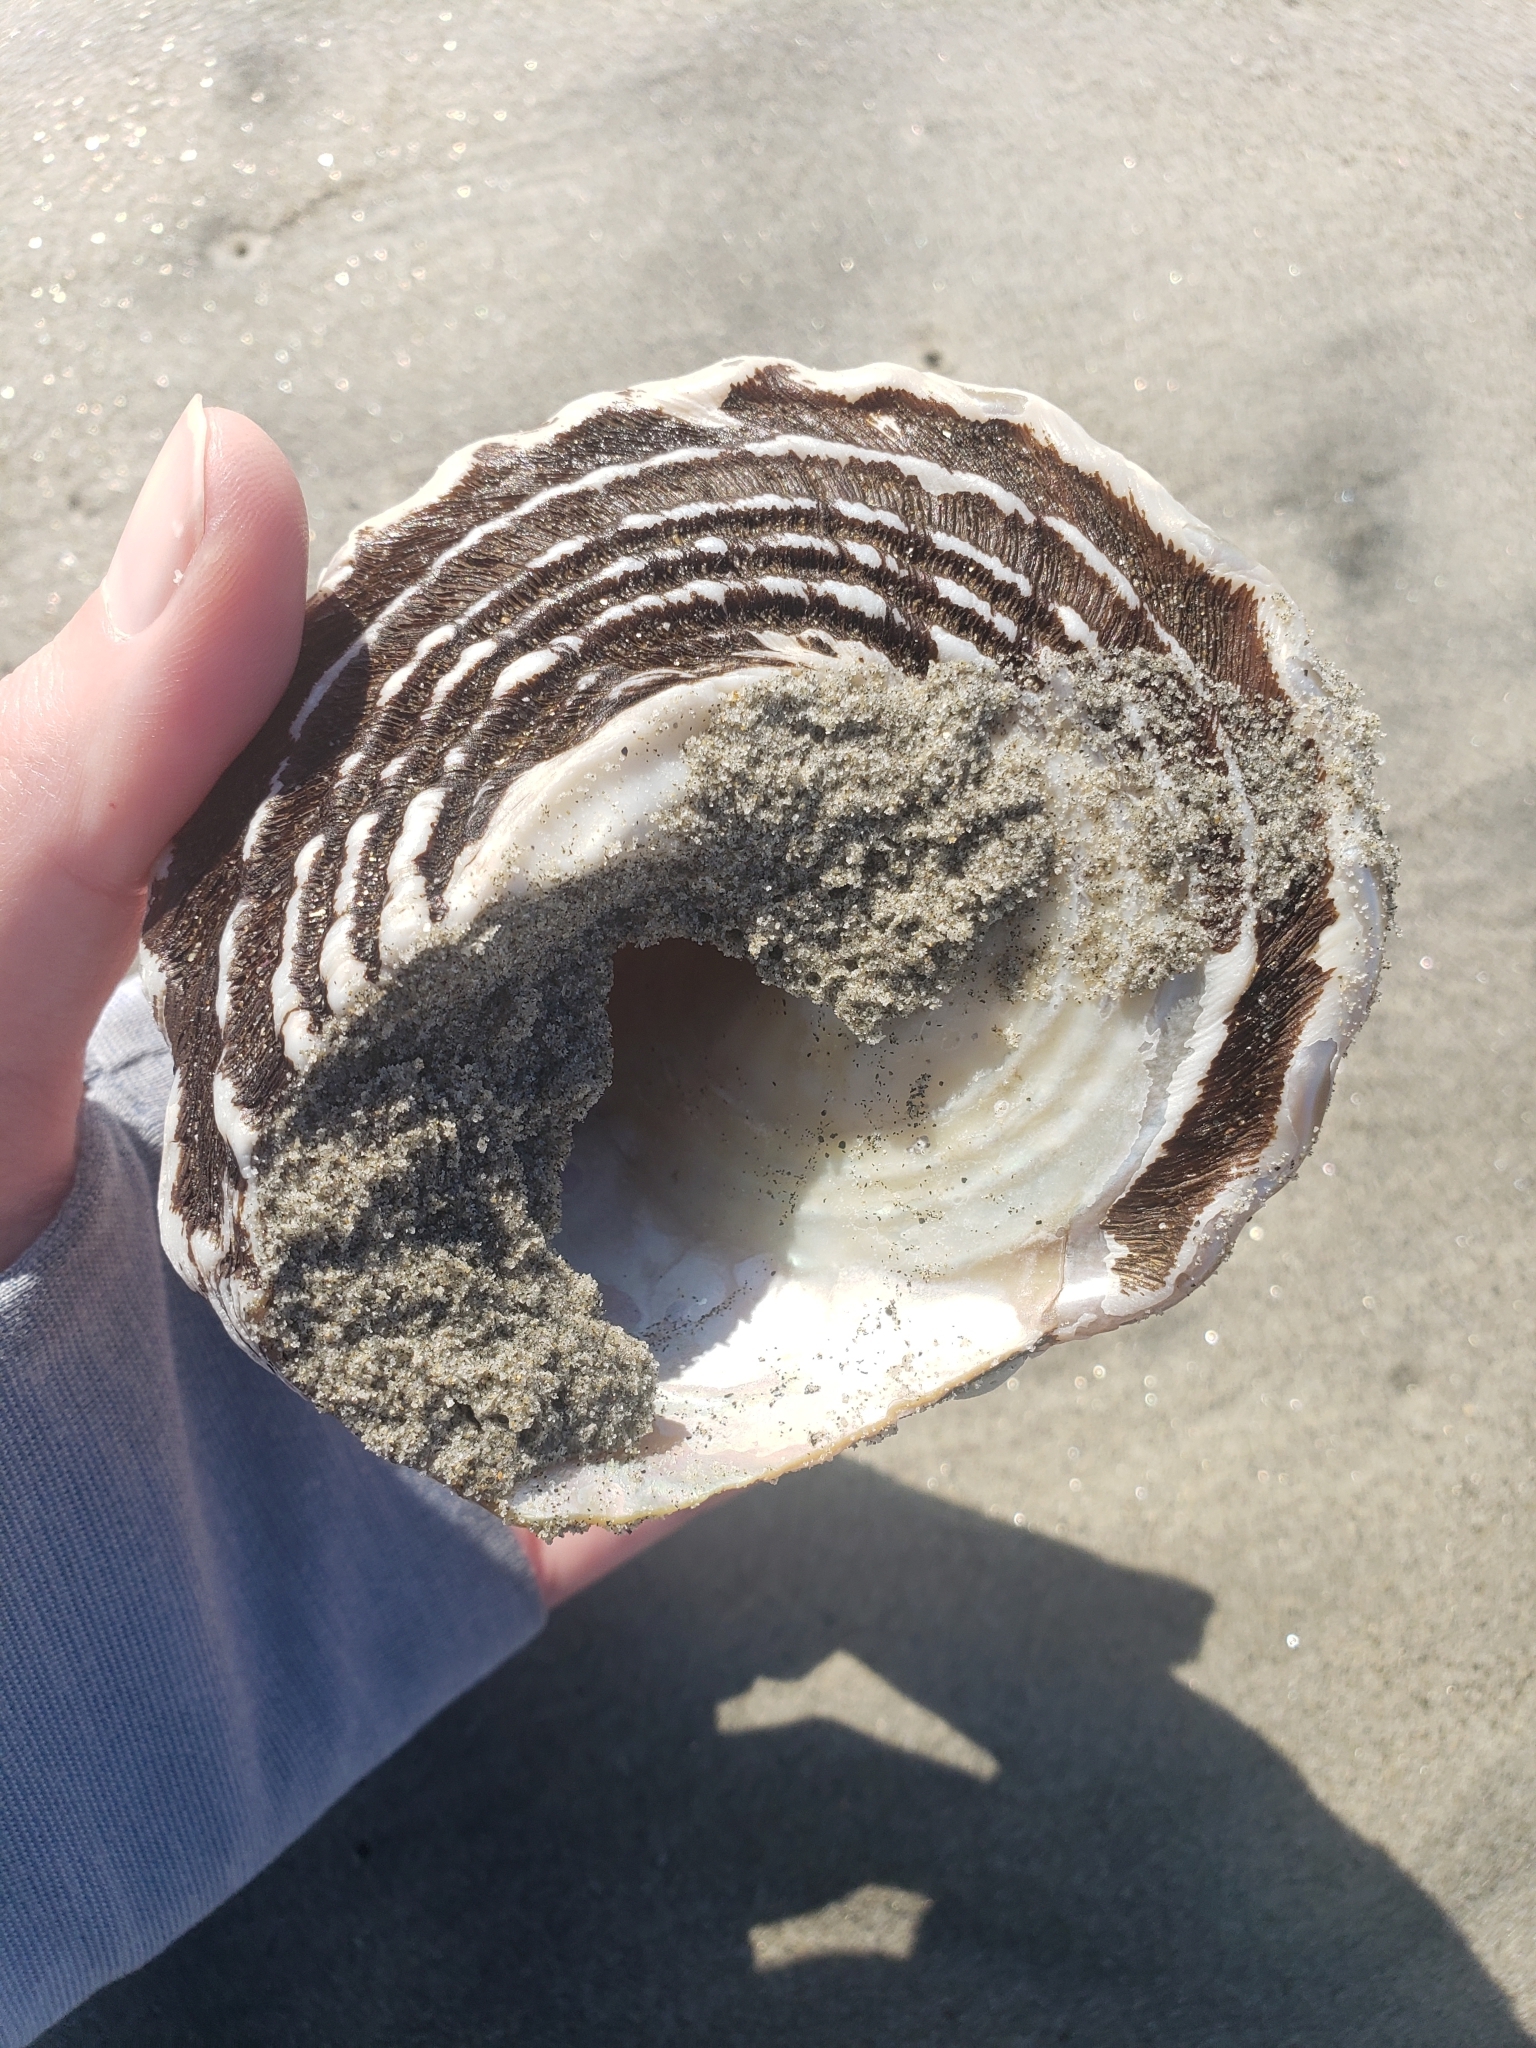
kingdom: Animalia
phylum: Mollusca
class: Gastropoda
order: Trochida
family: Turbinidae
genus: Megastraea
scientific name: Megastraea undosa
